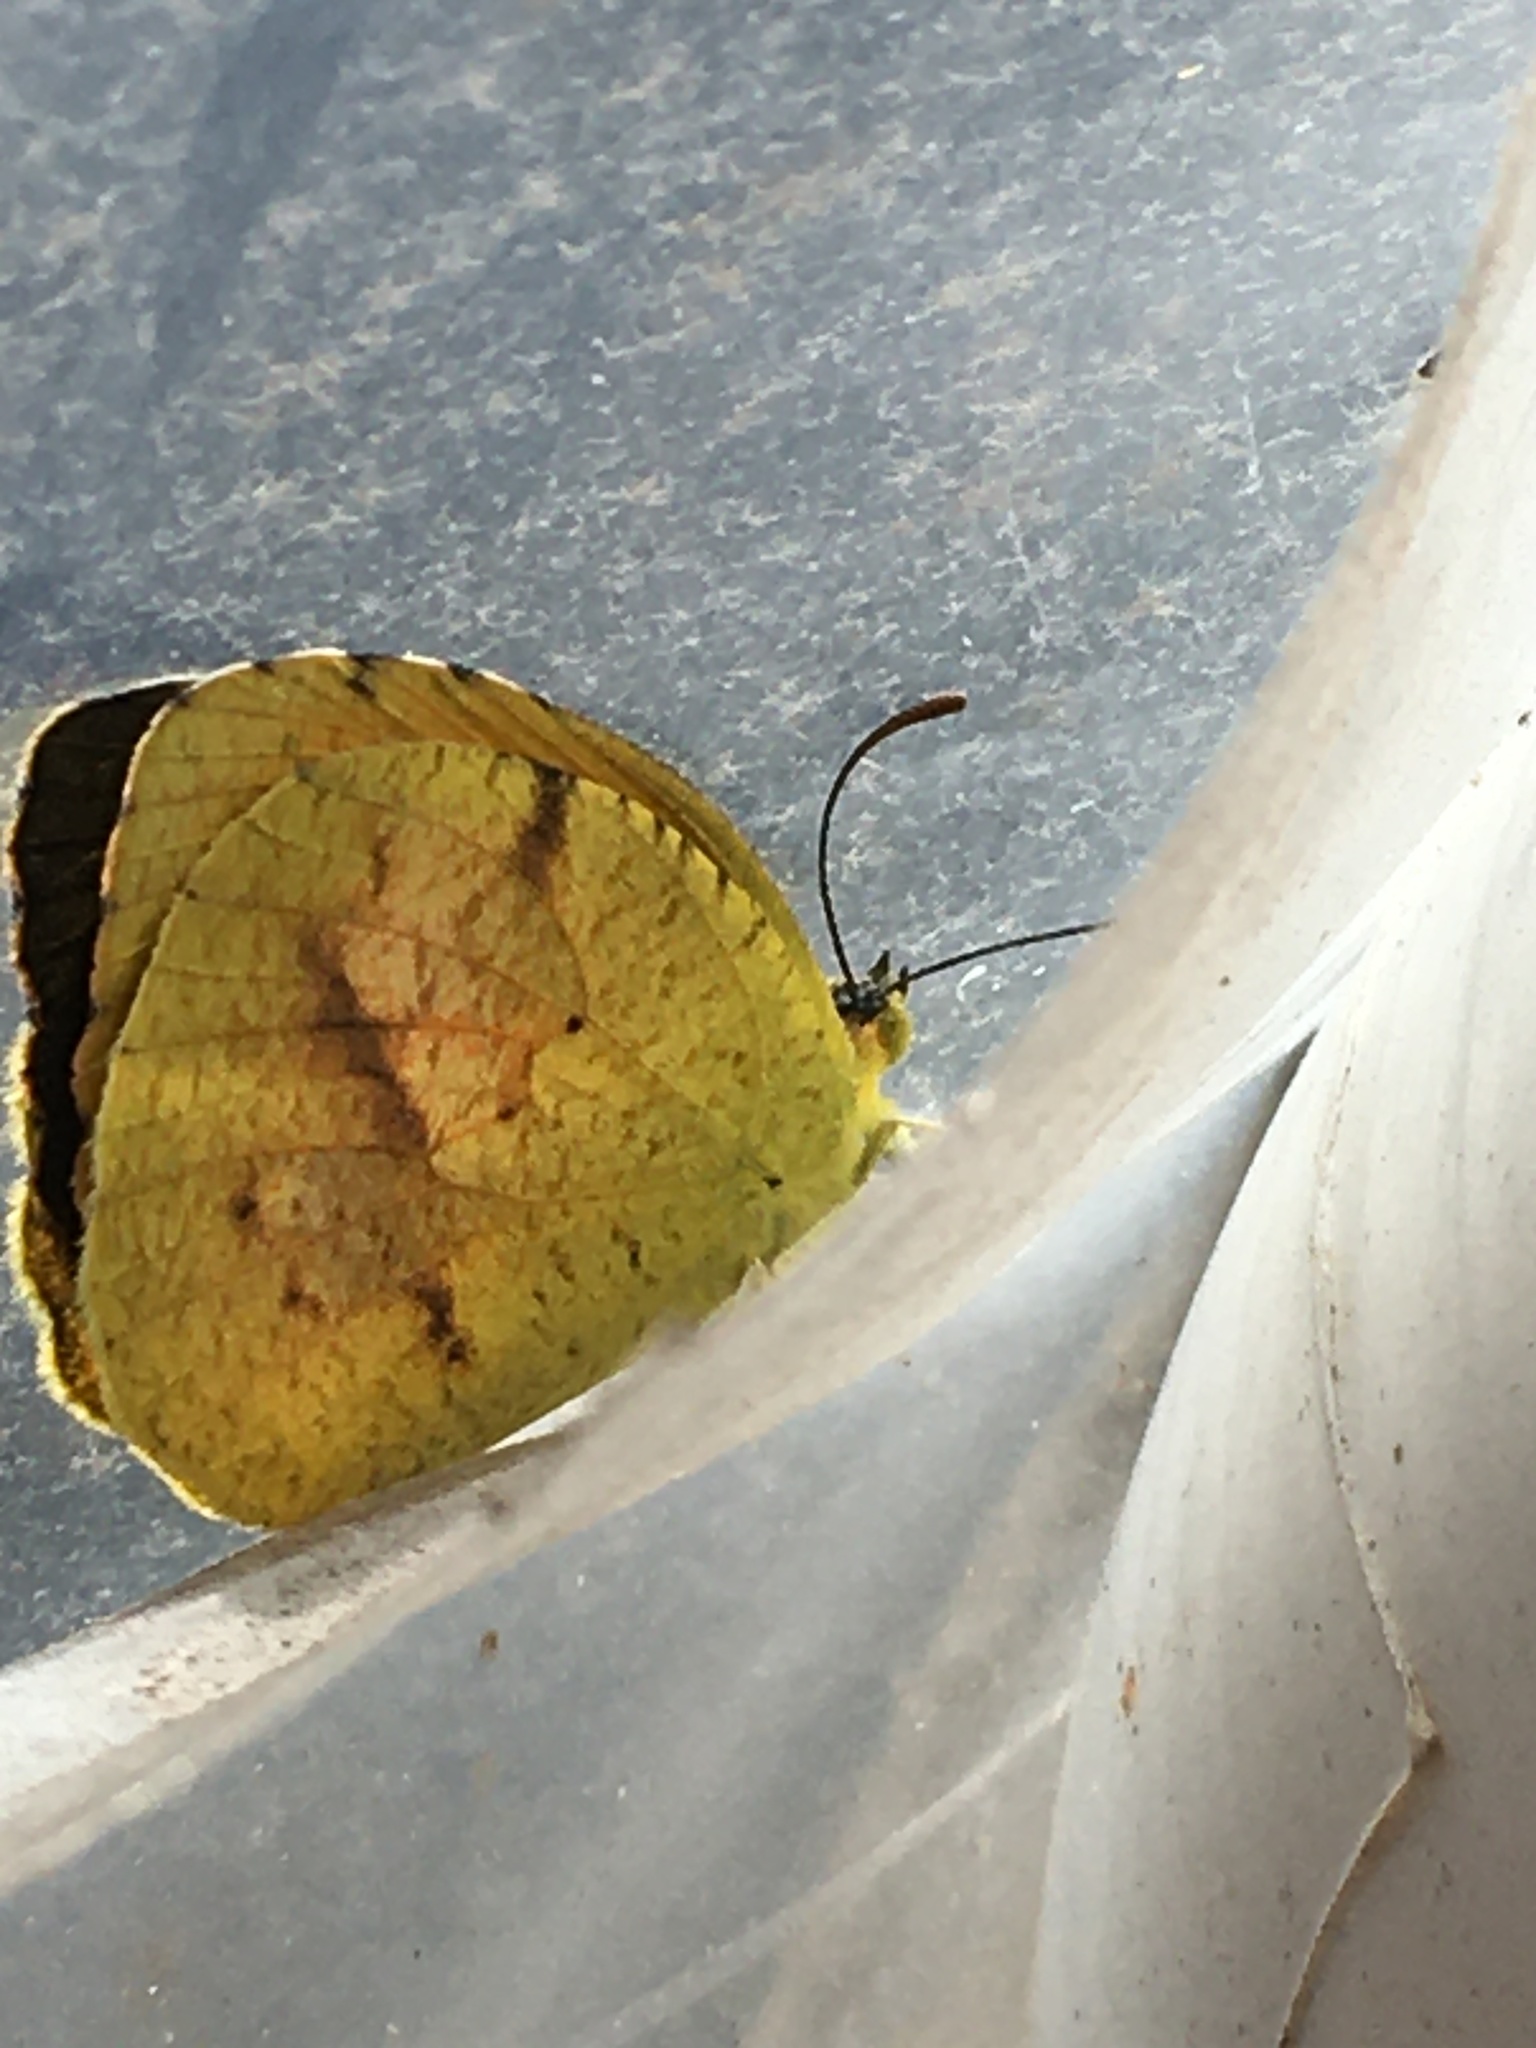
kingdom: Animalia
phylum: Arthropoda
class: Insecta
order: Lepidoptera
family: Pieridae
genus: Abaeis
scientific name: Abaeis nicippe
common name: Sleepy orange
